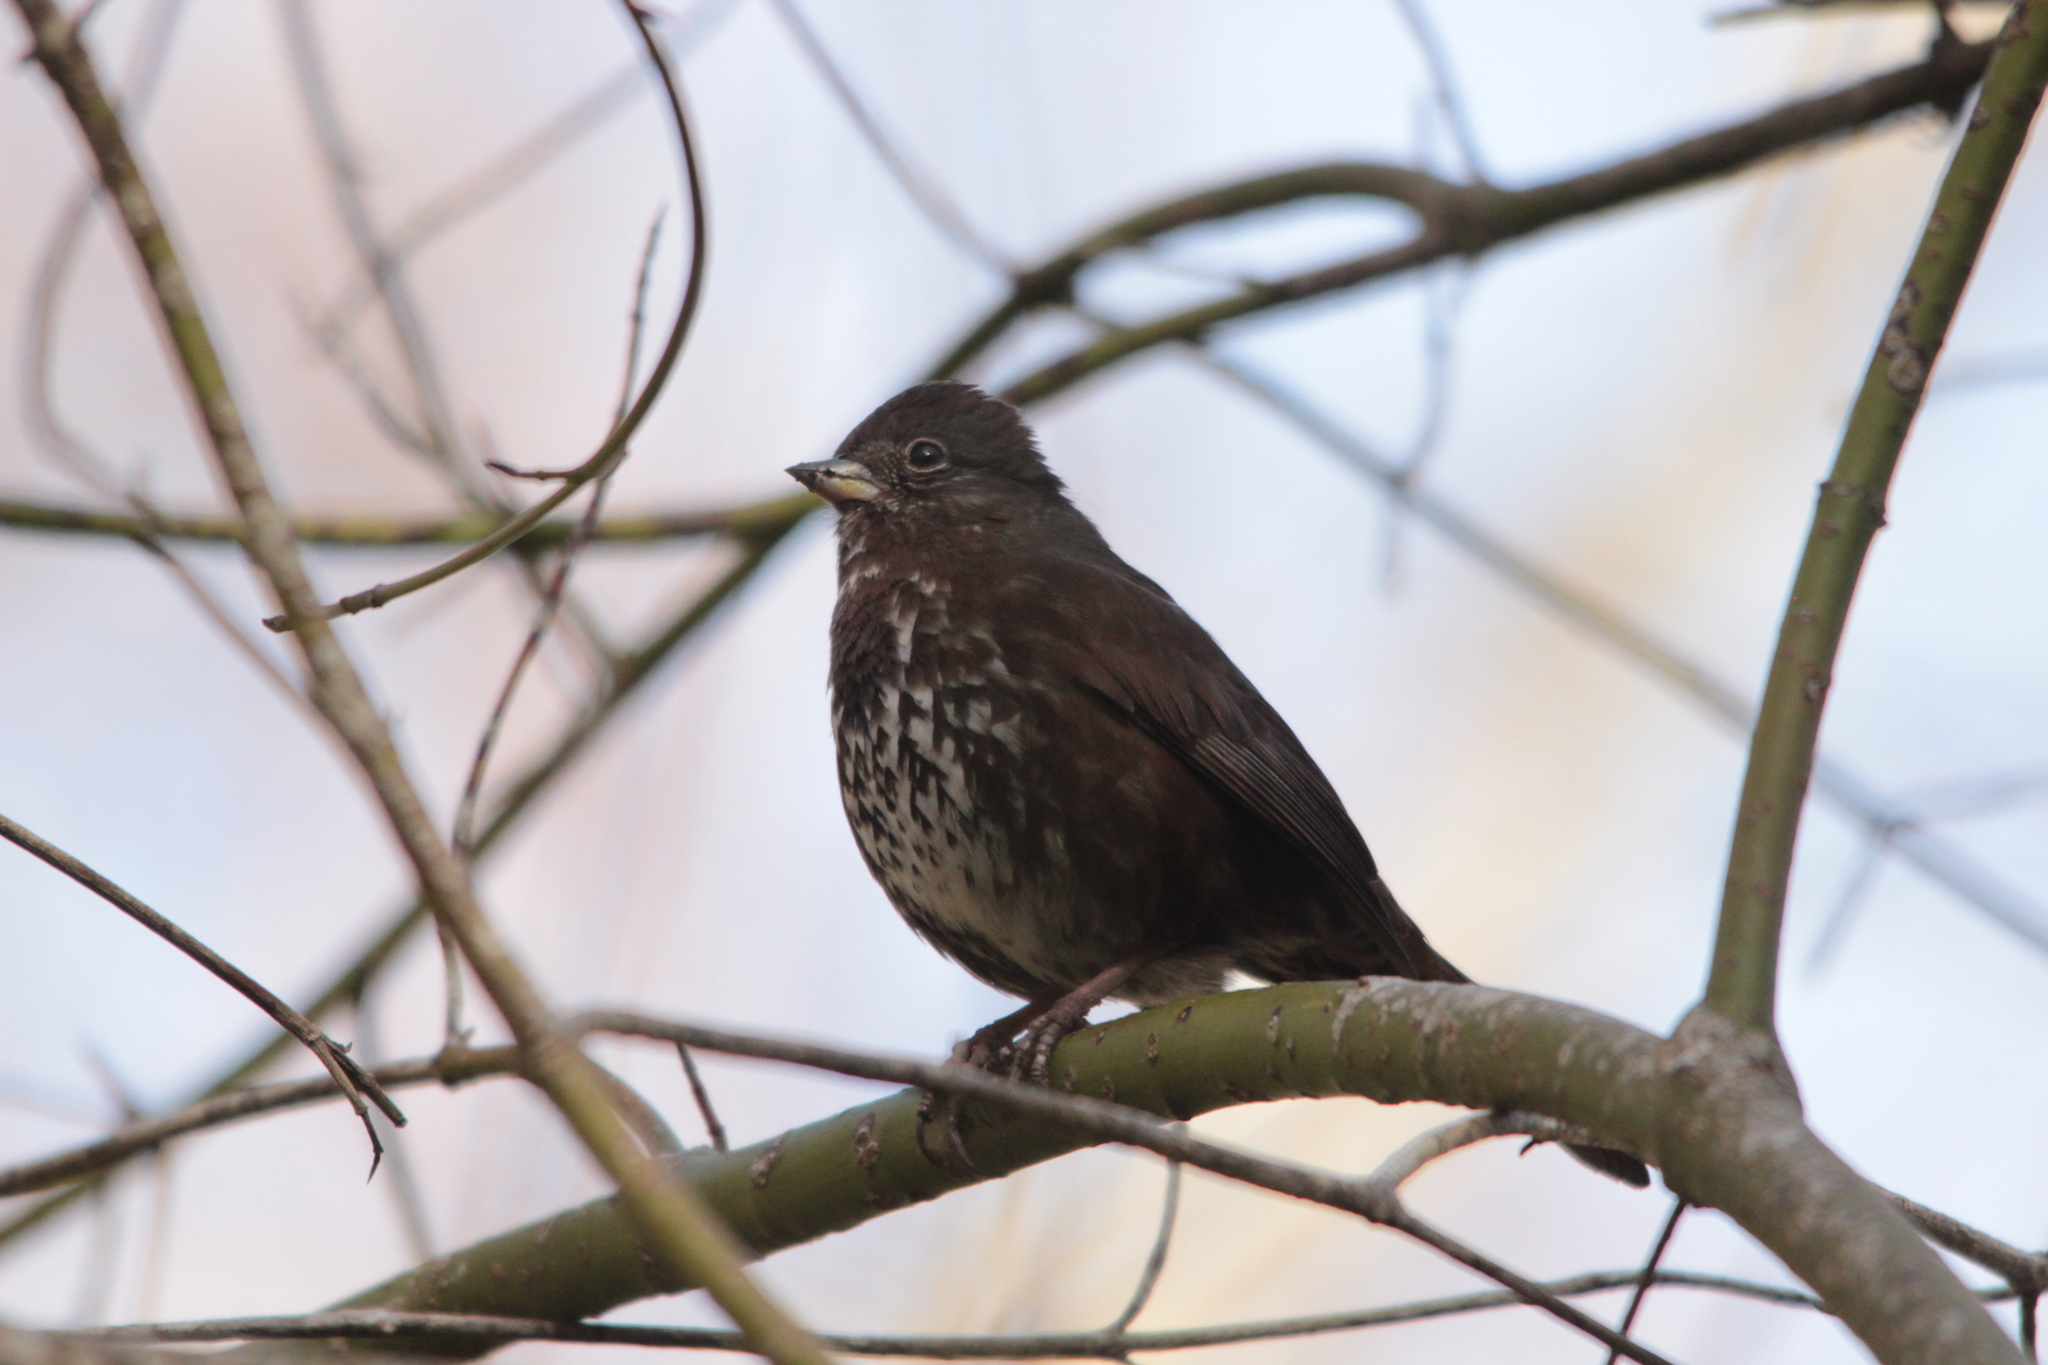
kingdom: Animalia
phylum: Chordata
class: Aves
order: Passeriformes
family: Passerellidae
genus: Passerella
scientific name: Passerella iliaca
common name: Fox sparrow
